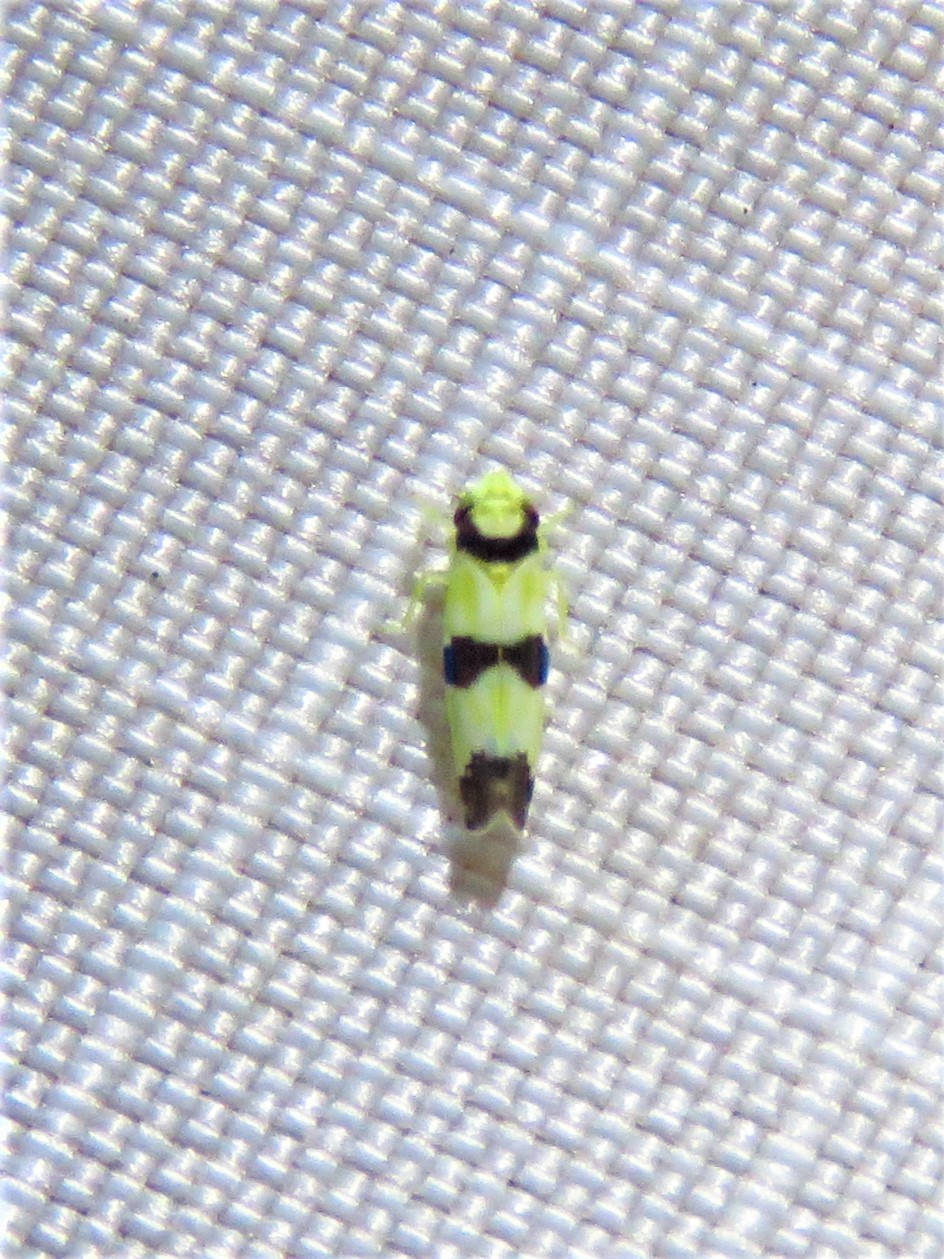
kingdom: Animalia
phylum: Arthropoda
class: Insecta
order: Hemiptera
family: Cicadellidae
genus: Erythroneura
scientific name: Erythroneura calycula
